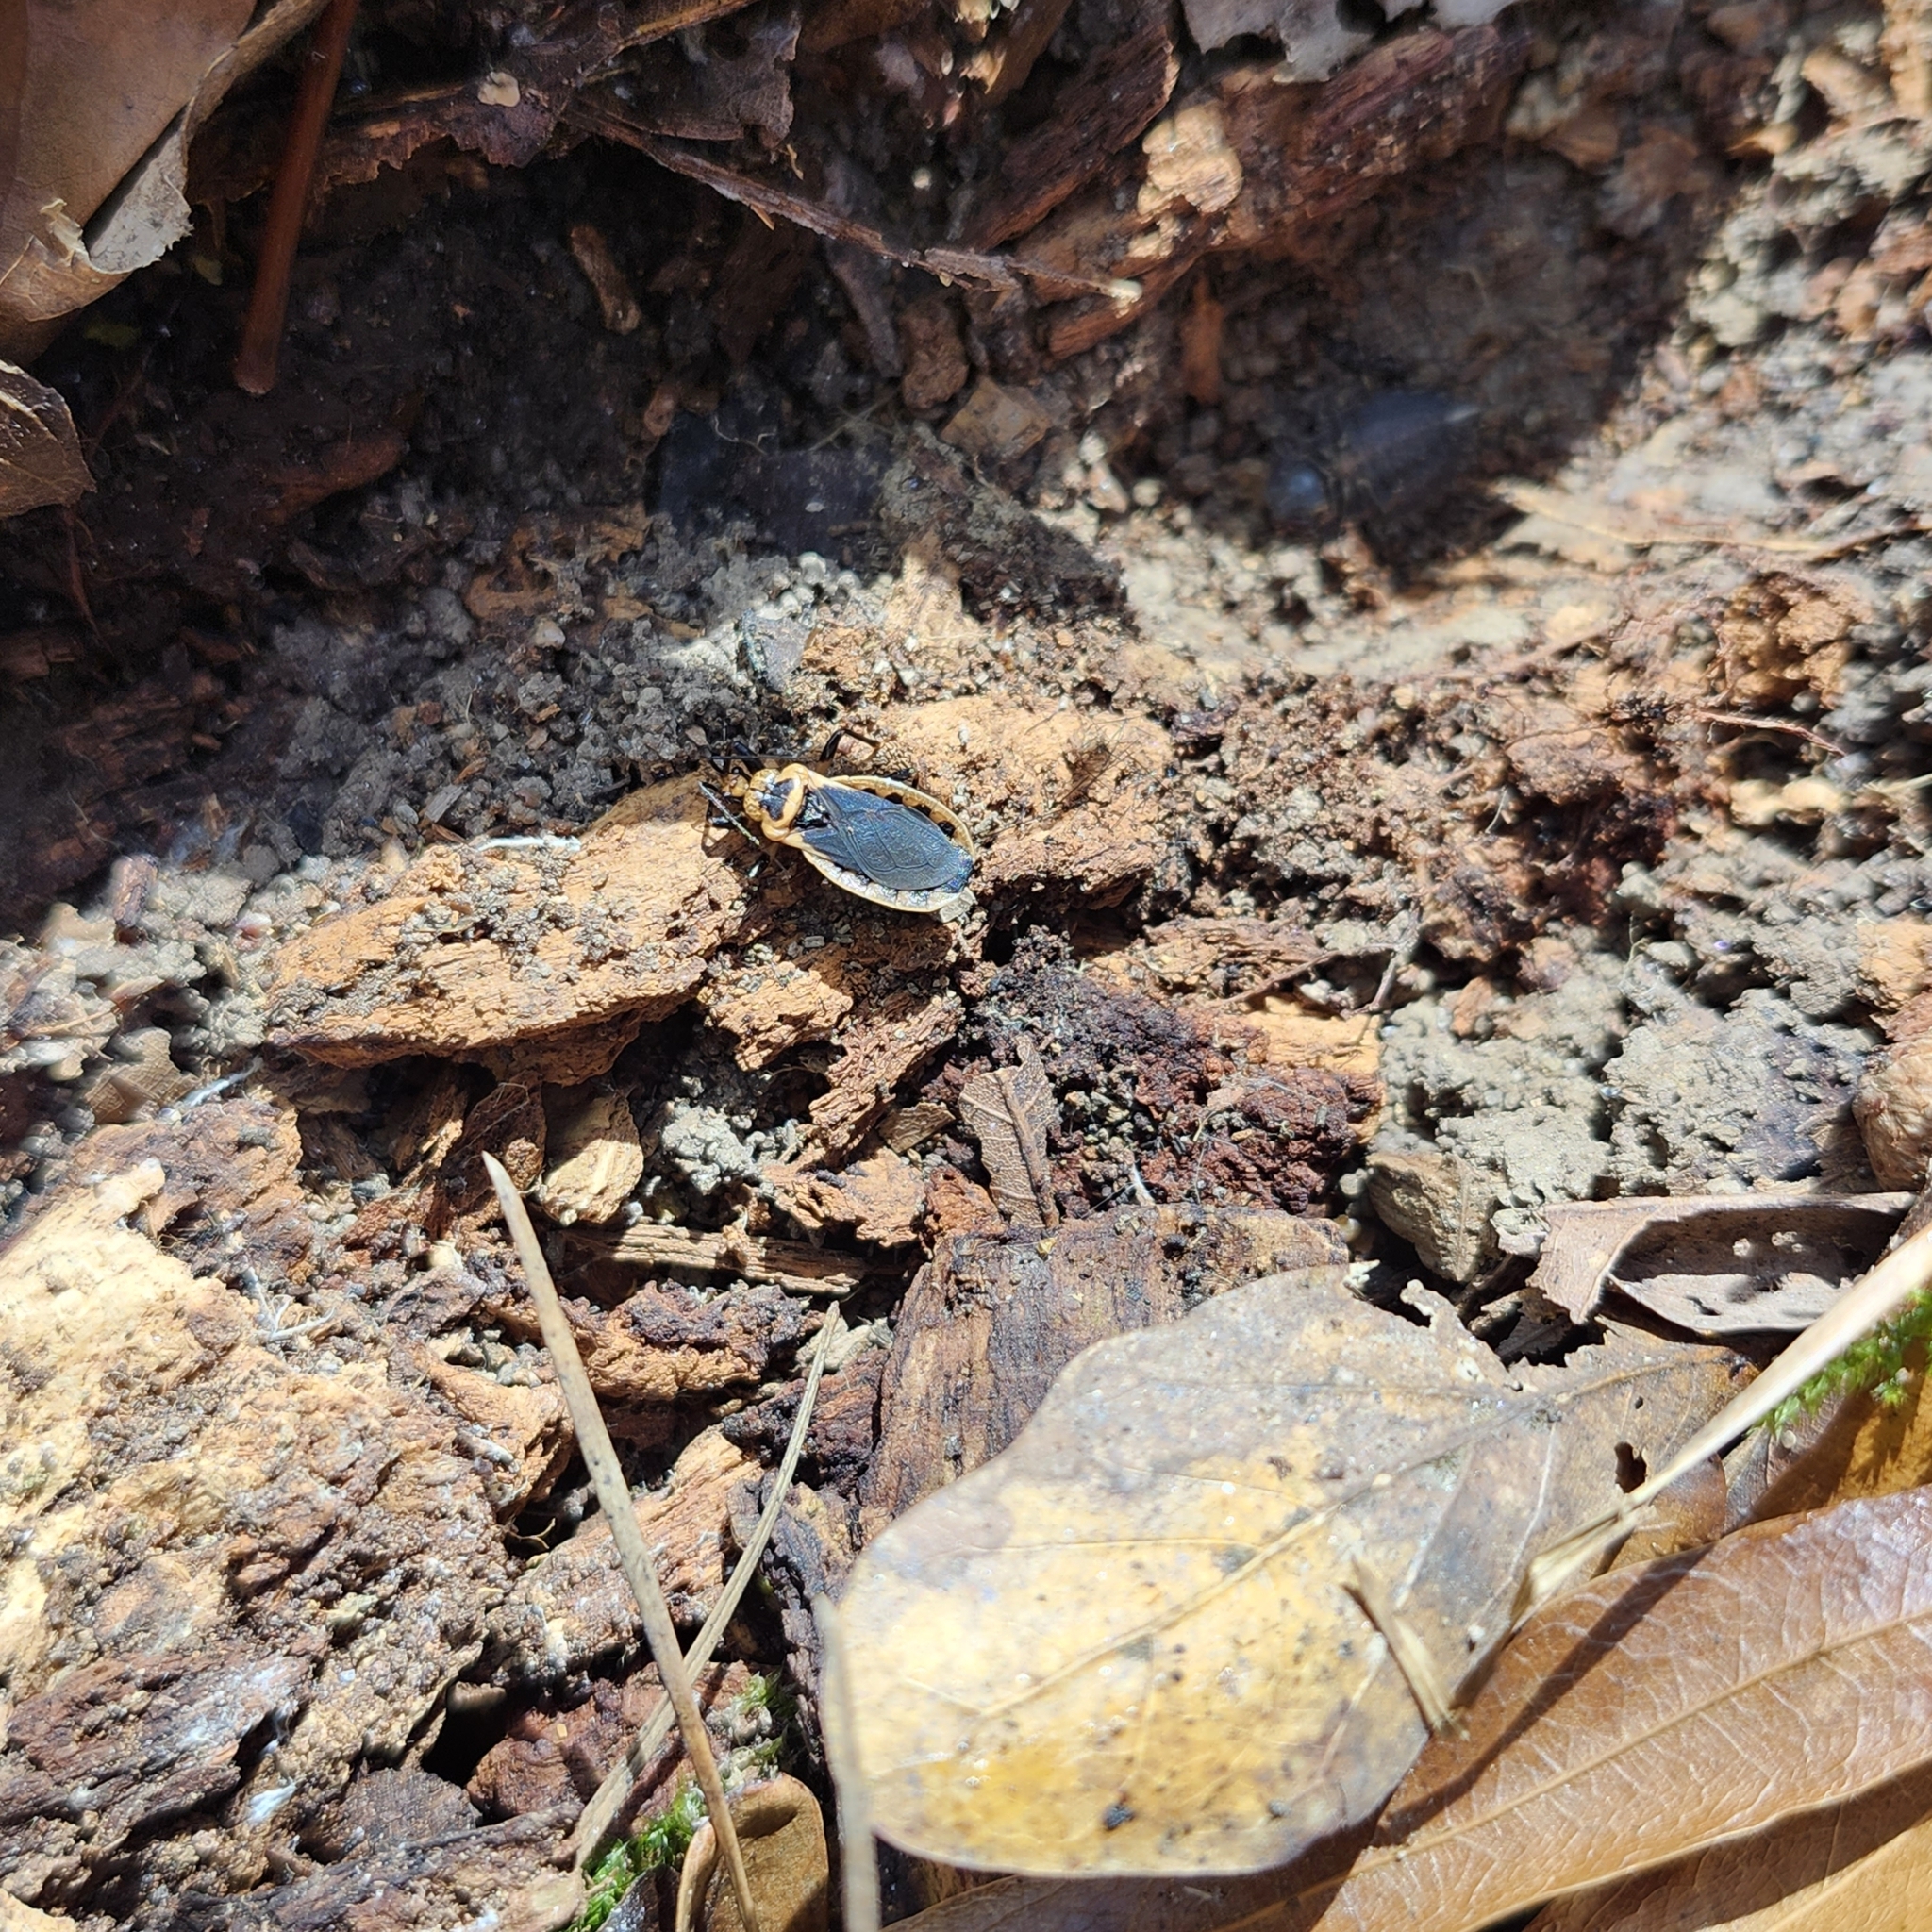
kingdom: Animalia
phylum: Arthropoda
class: Insecta
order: Hemiptera
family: Reduviidae
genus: Rhiginia
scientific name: Rhiginia cruciata
